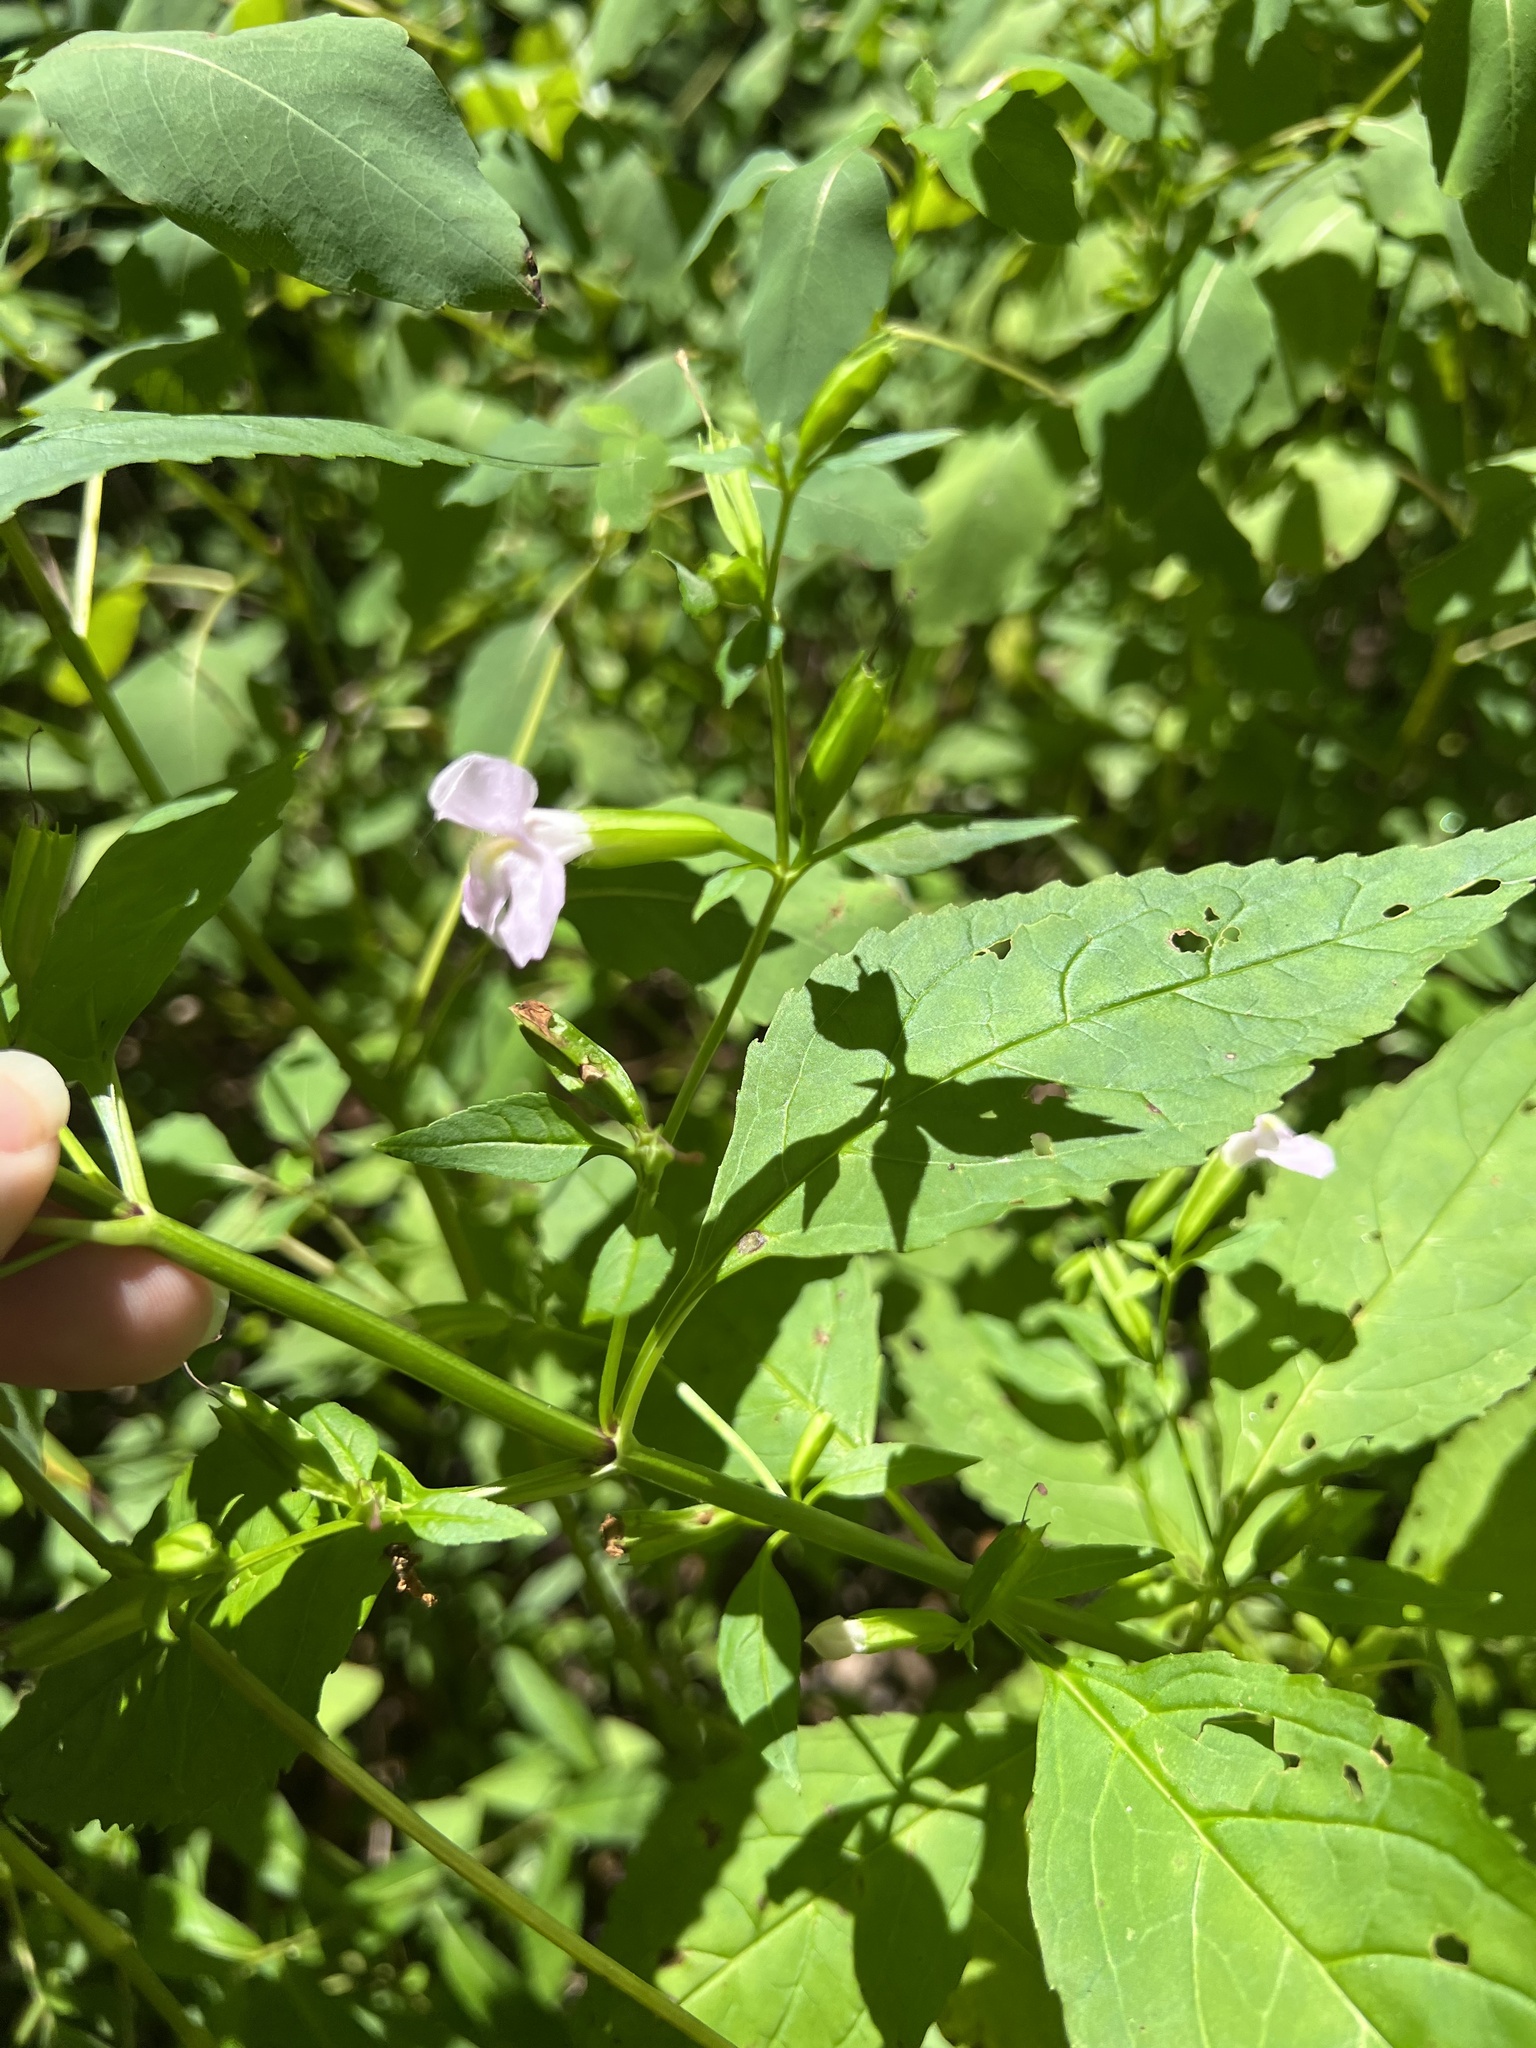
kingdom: Plantae
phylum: Tracheophyta
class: Magnoliopsida
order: Lamiales
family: Phrymaceae
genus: Mimulus
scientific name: Mimulus alatus
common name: Sharp-wing monkey-flower
